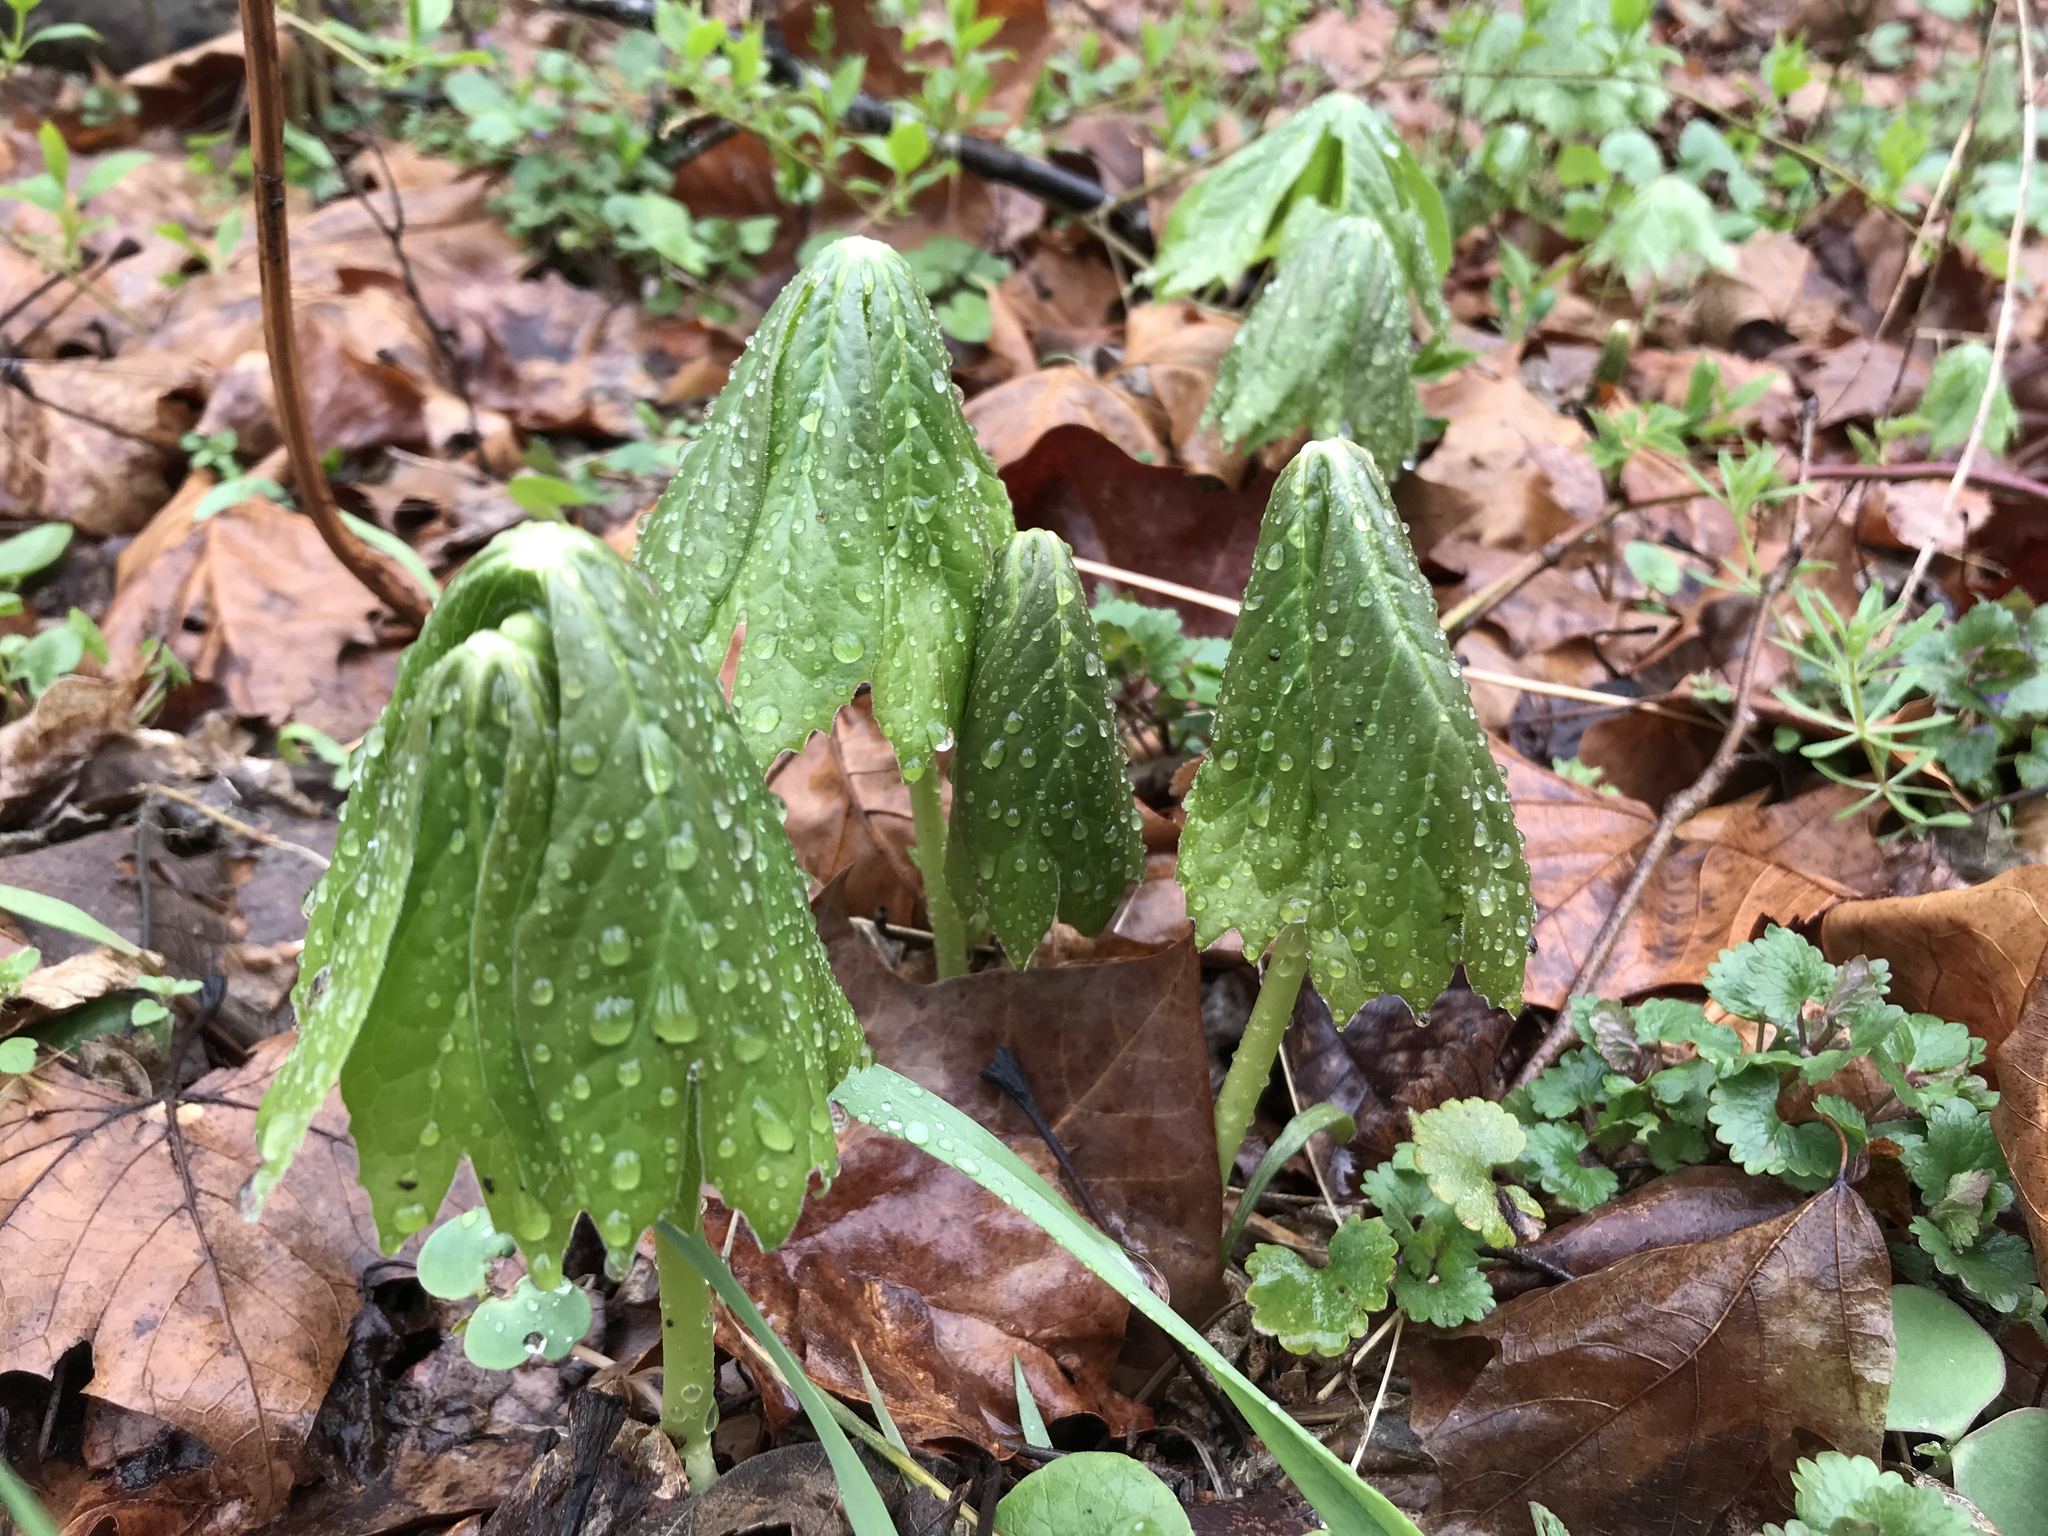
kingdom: Plantae
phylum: Tracheophyta
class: Magnoliopsida
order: Ranunculales
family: Berberidaceae
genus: Podophyllum
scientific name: Podophyllum peltatum
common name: Wild mandrake
